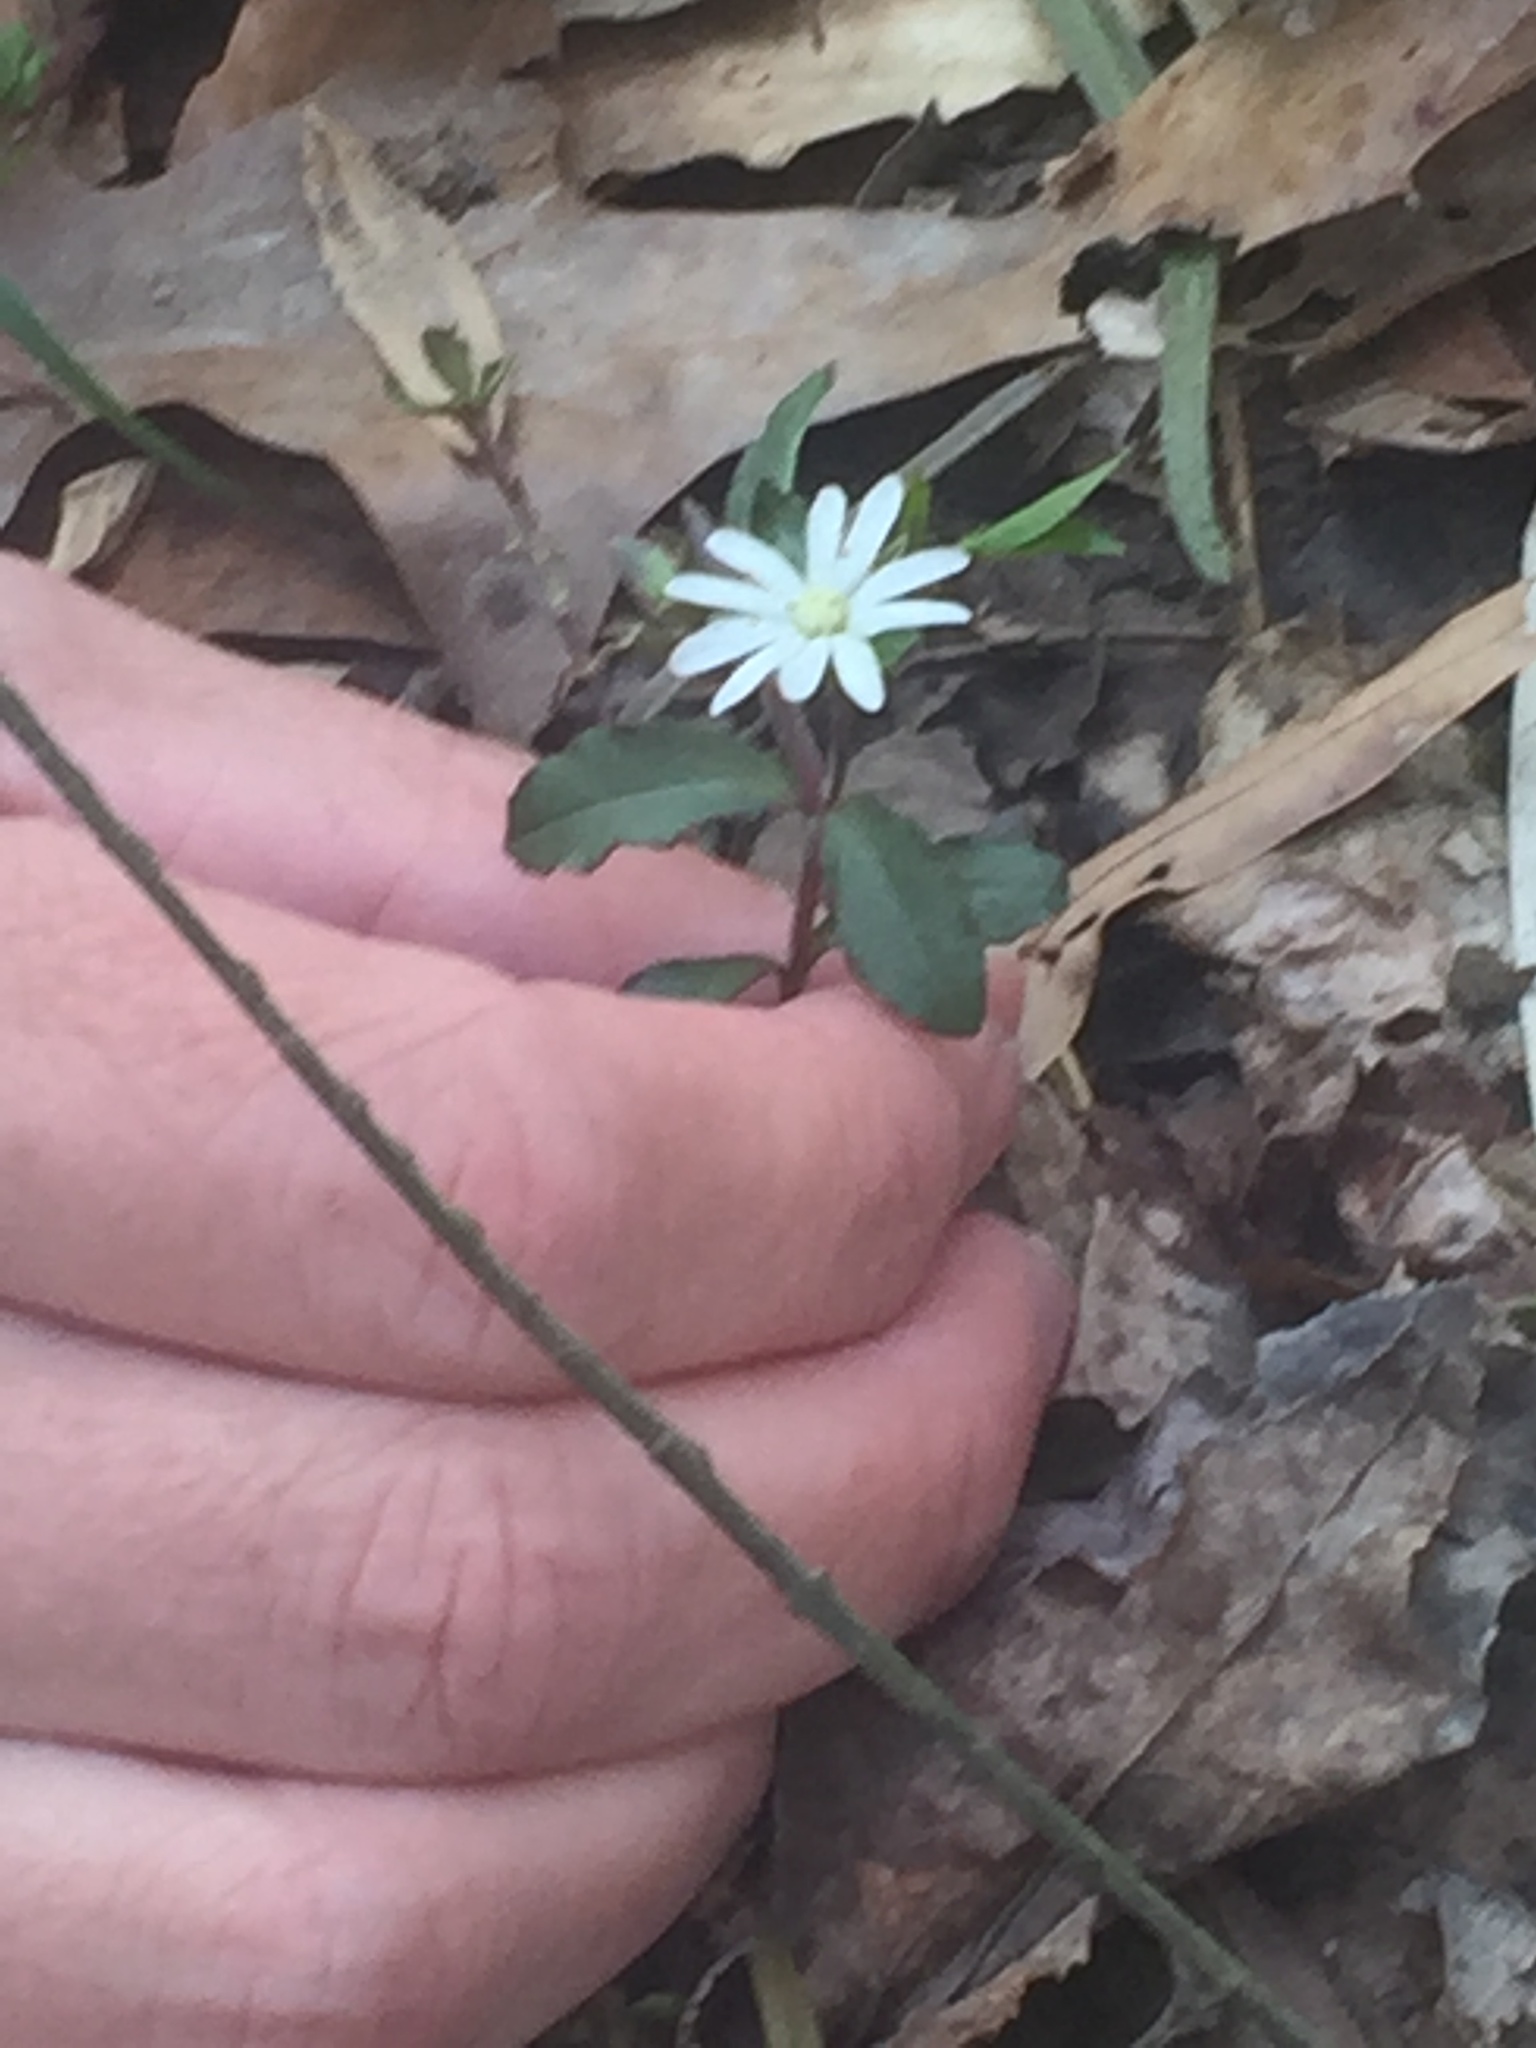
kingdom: Plantae
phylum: Tracheophyta
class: Magnoliopsida
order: Caryophyllales
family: Caryophyllaceae
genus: Stellaria
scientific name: Stellaria pubera
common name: Star chickweed
